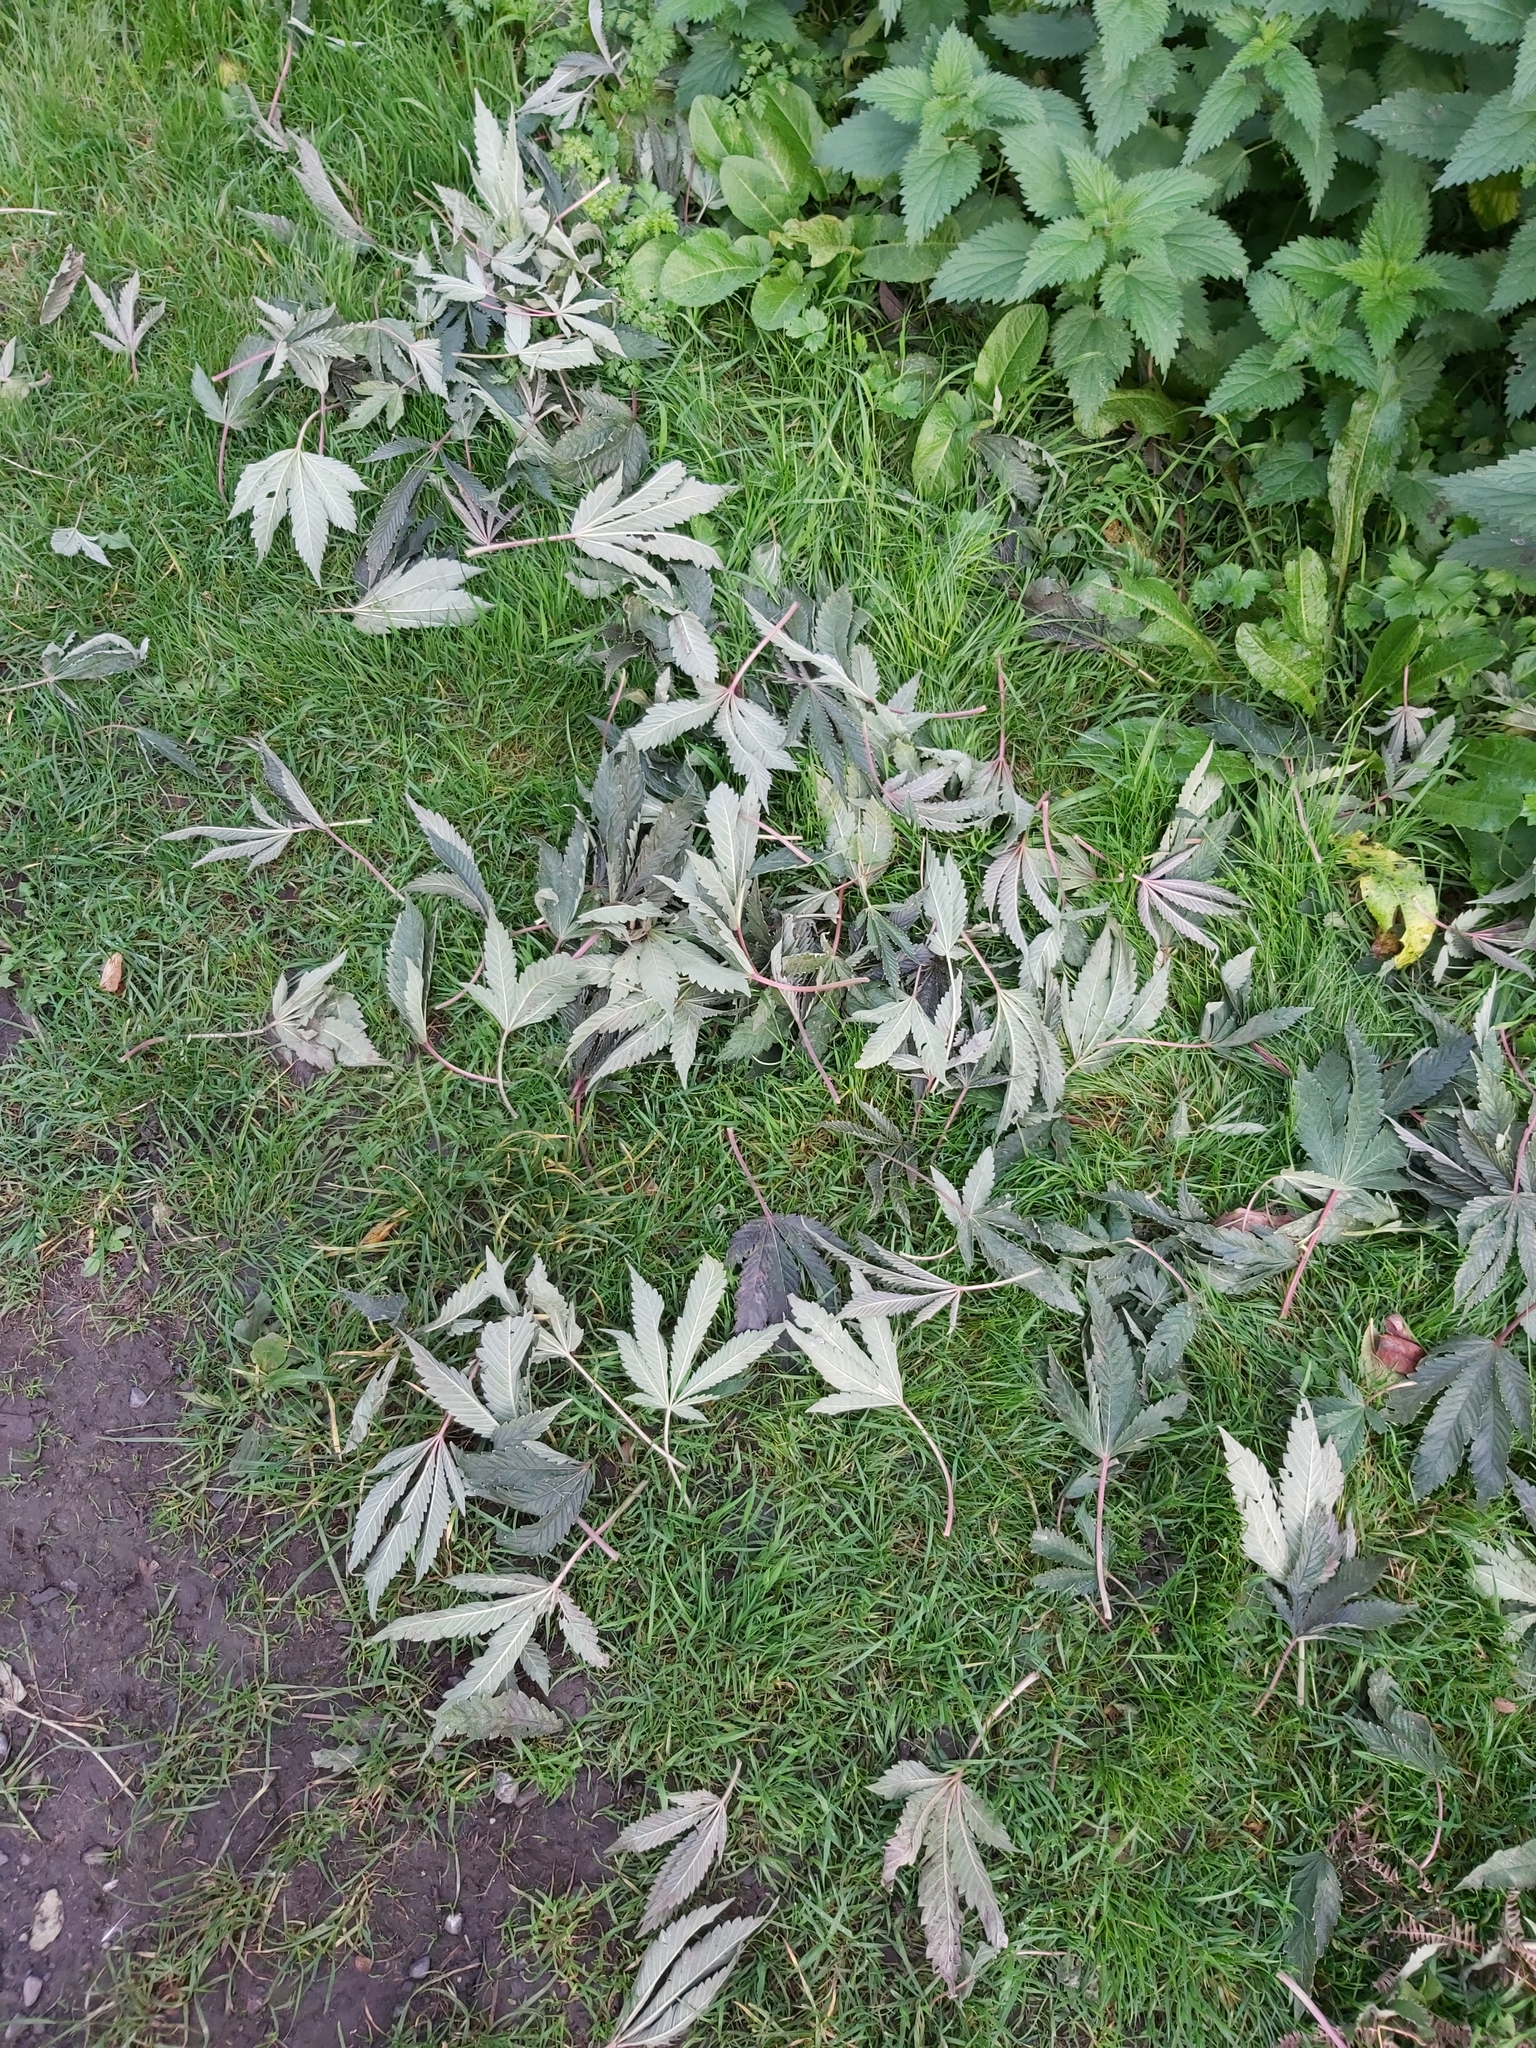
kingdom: Plantae
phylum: Tracheophyta
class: Magnoliopsida
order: Rosales
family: Cannabaceae
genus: Cannabis
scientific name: Cannabis sativa
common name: Hemp
